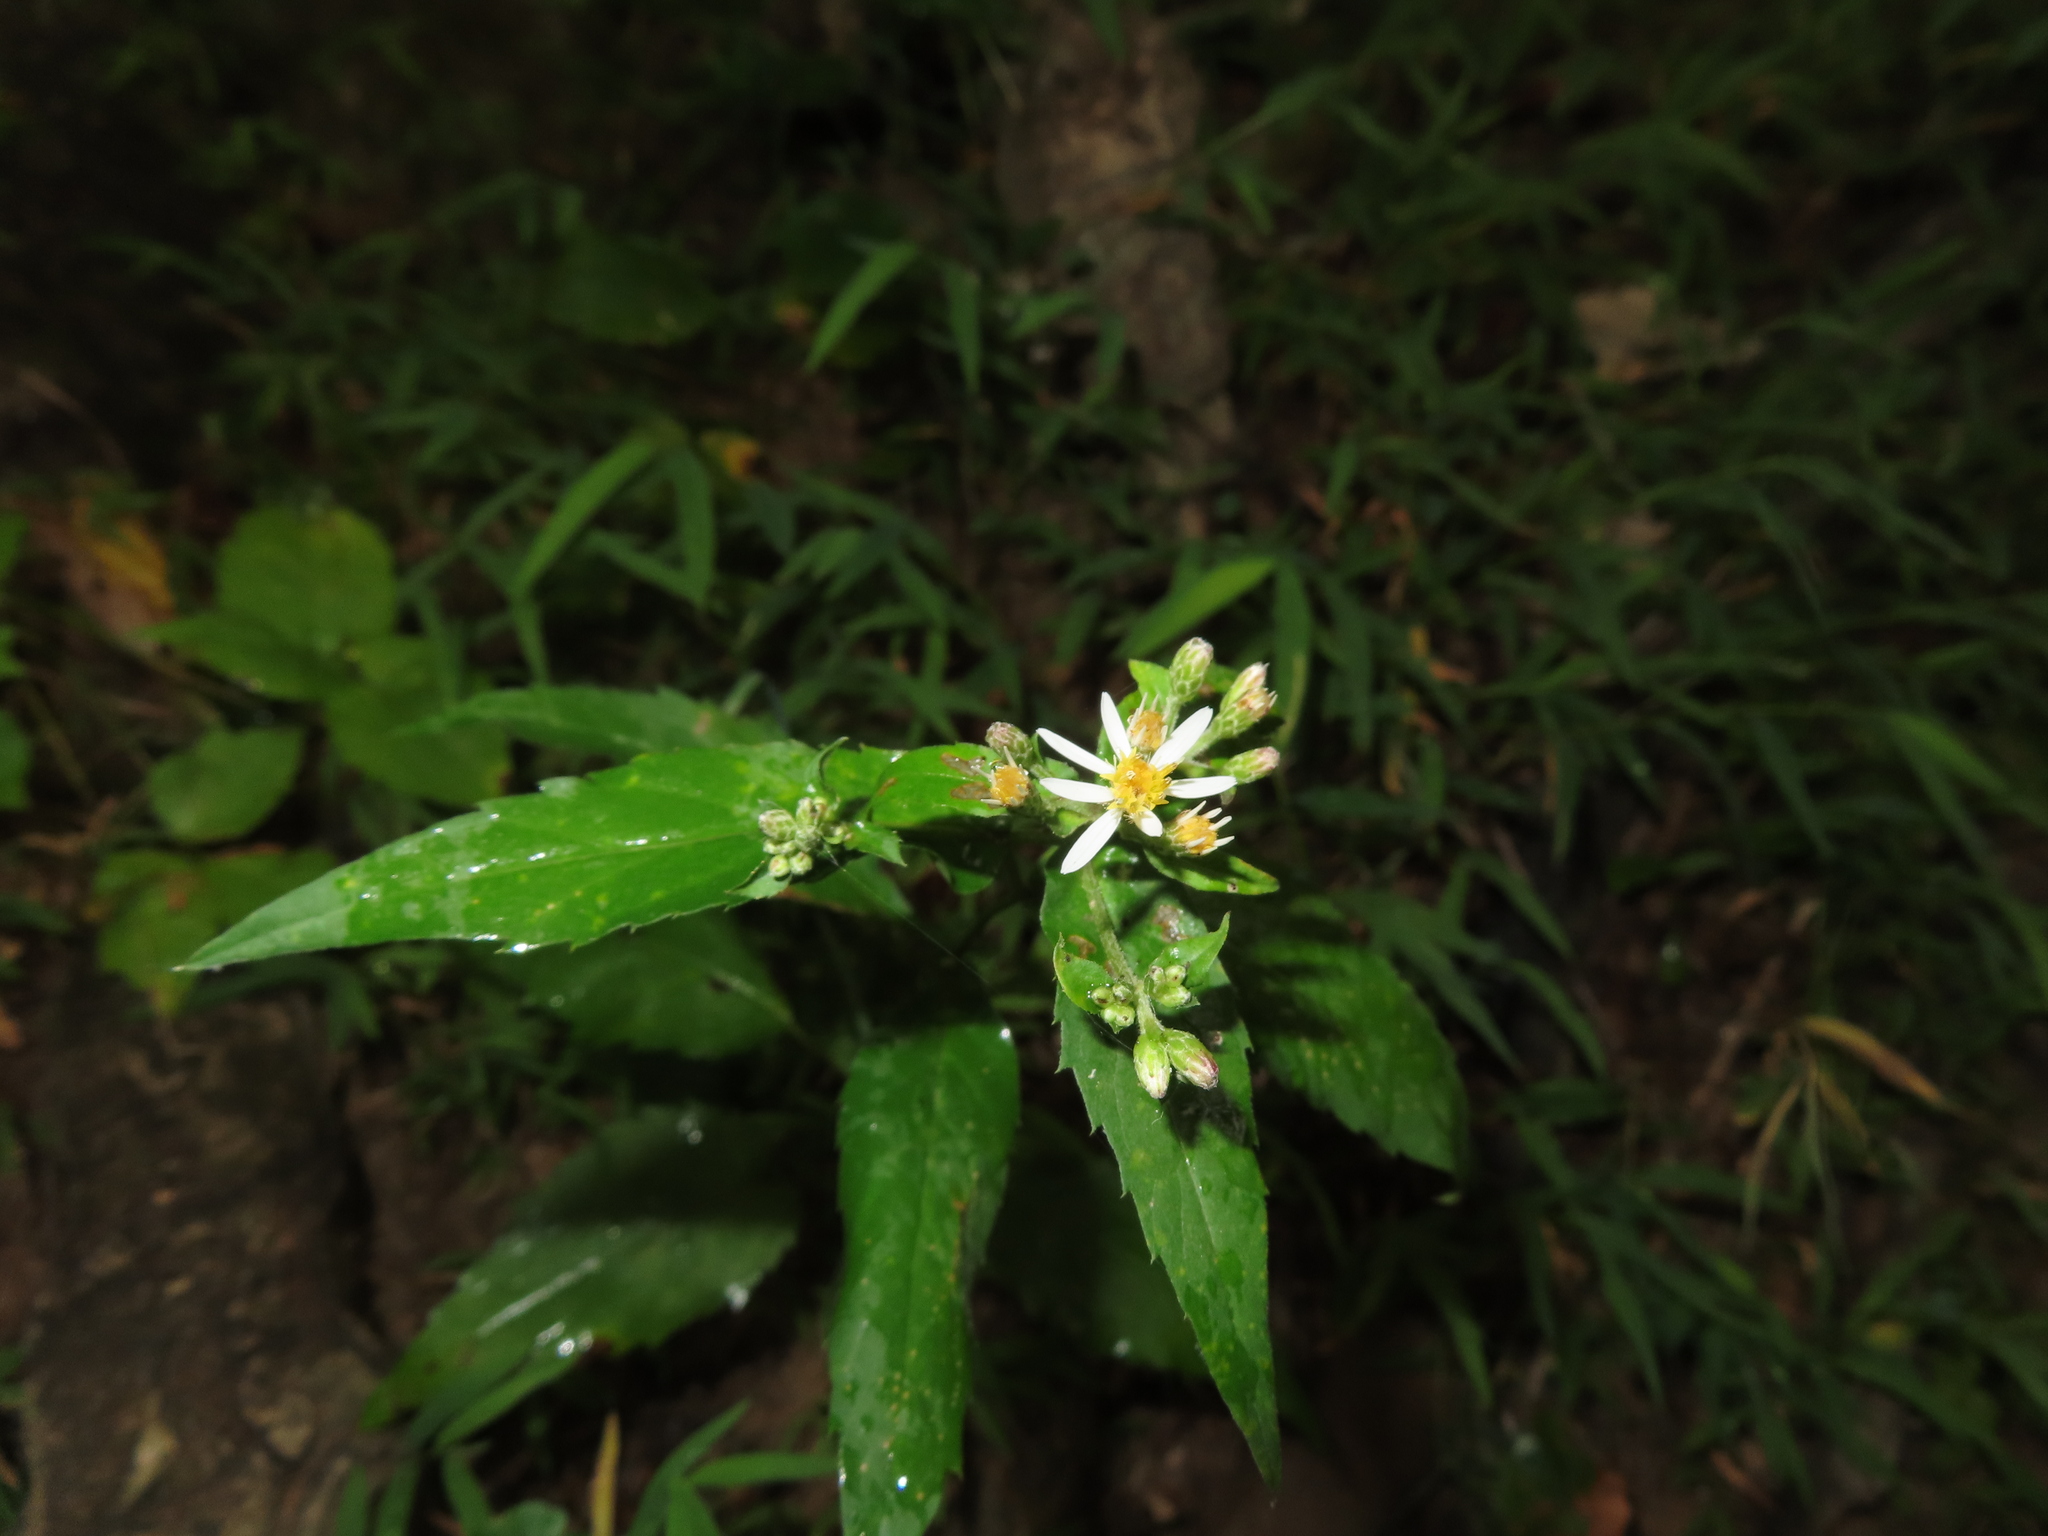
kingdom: Plantae
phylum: Tracheophyta
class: Magnoliopsida
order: Asterales
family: Asteraceae
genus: Eurybia
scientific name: Eurybia divaricata
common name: White wood aster
